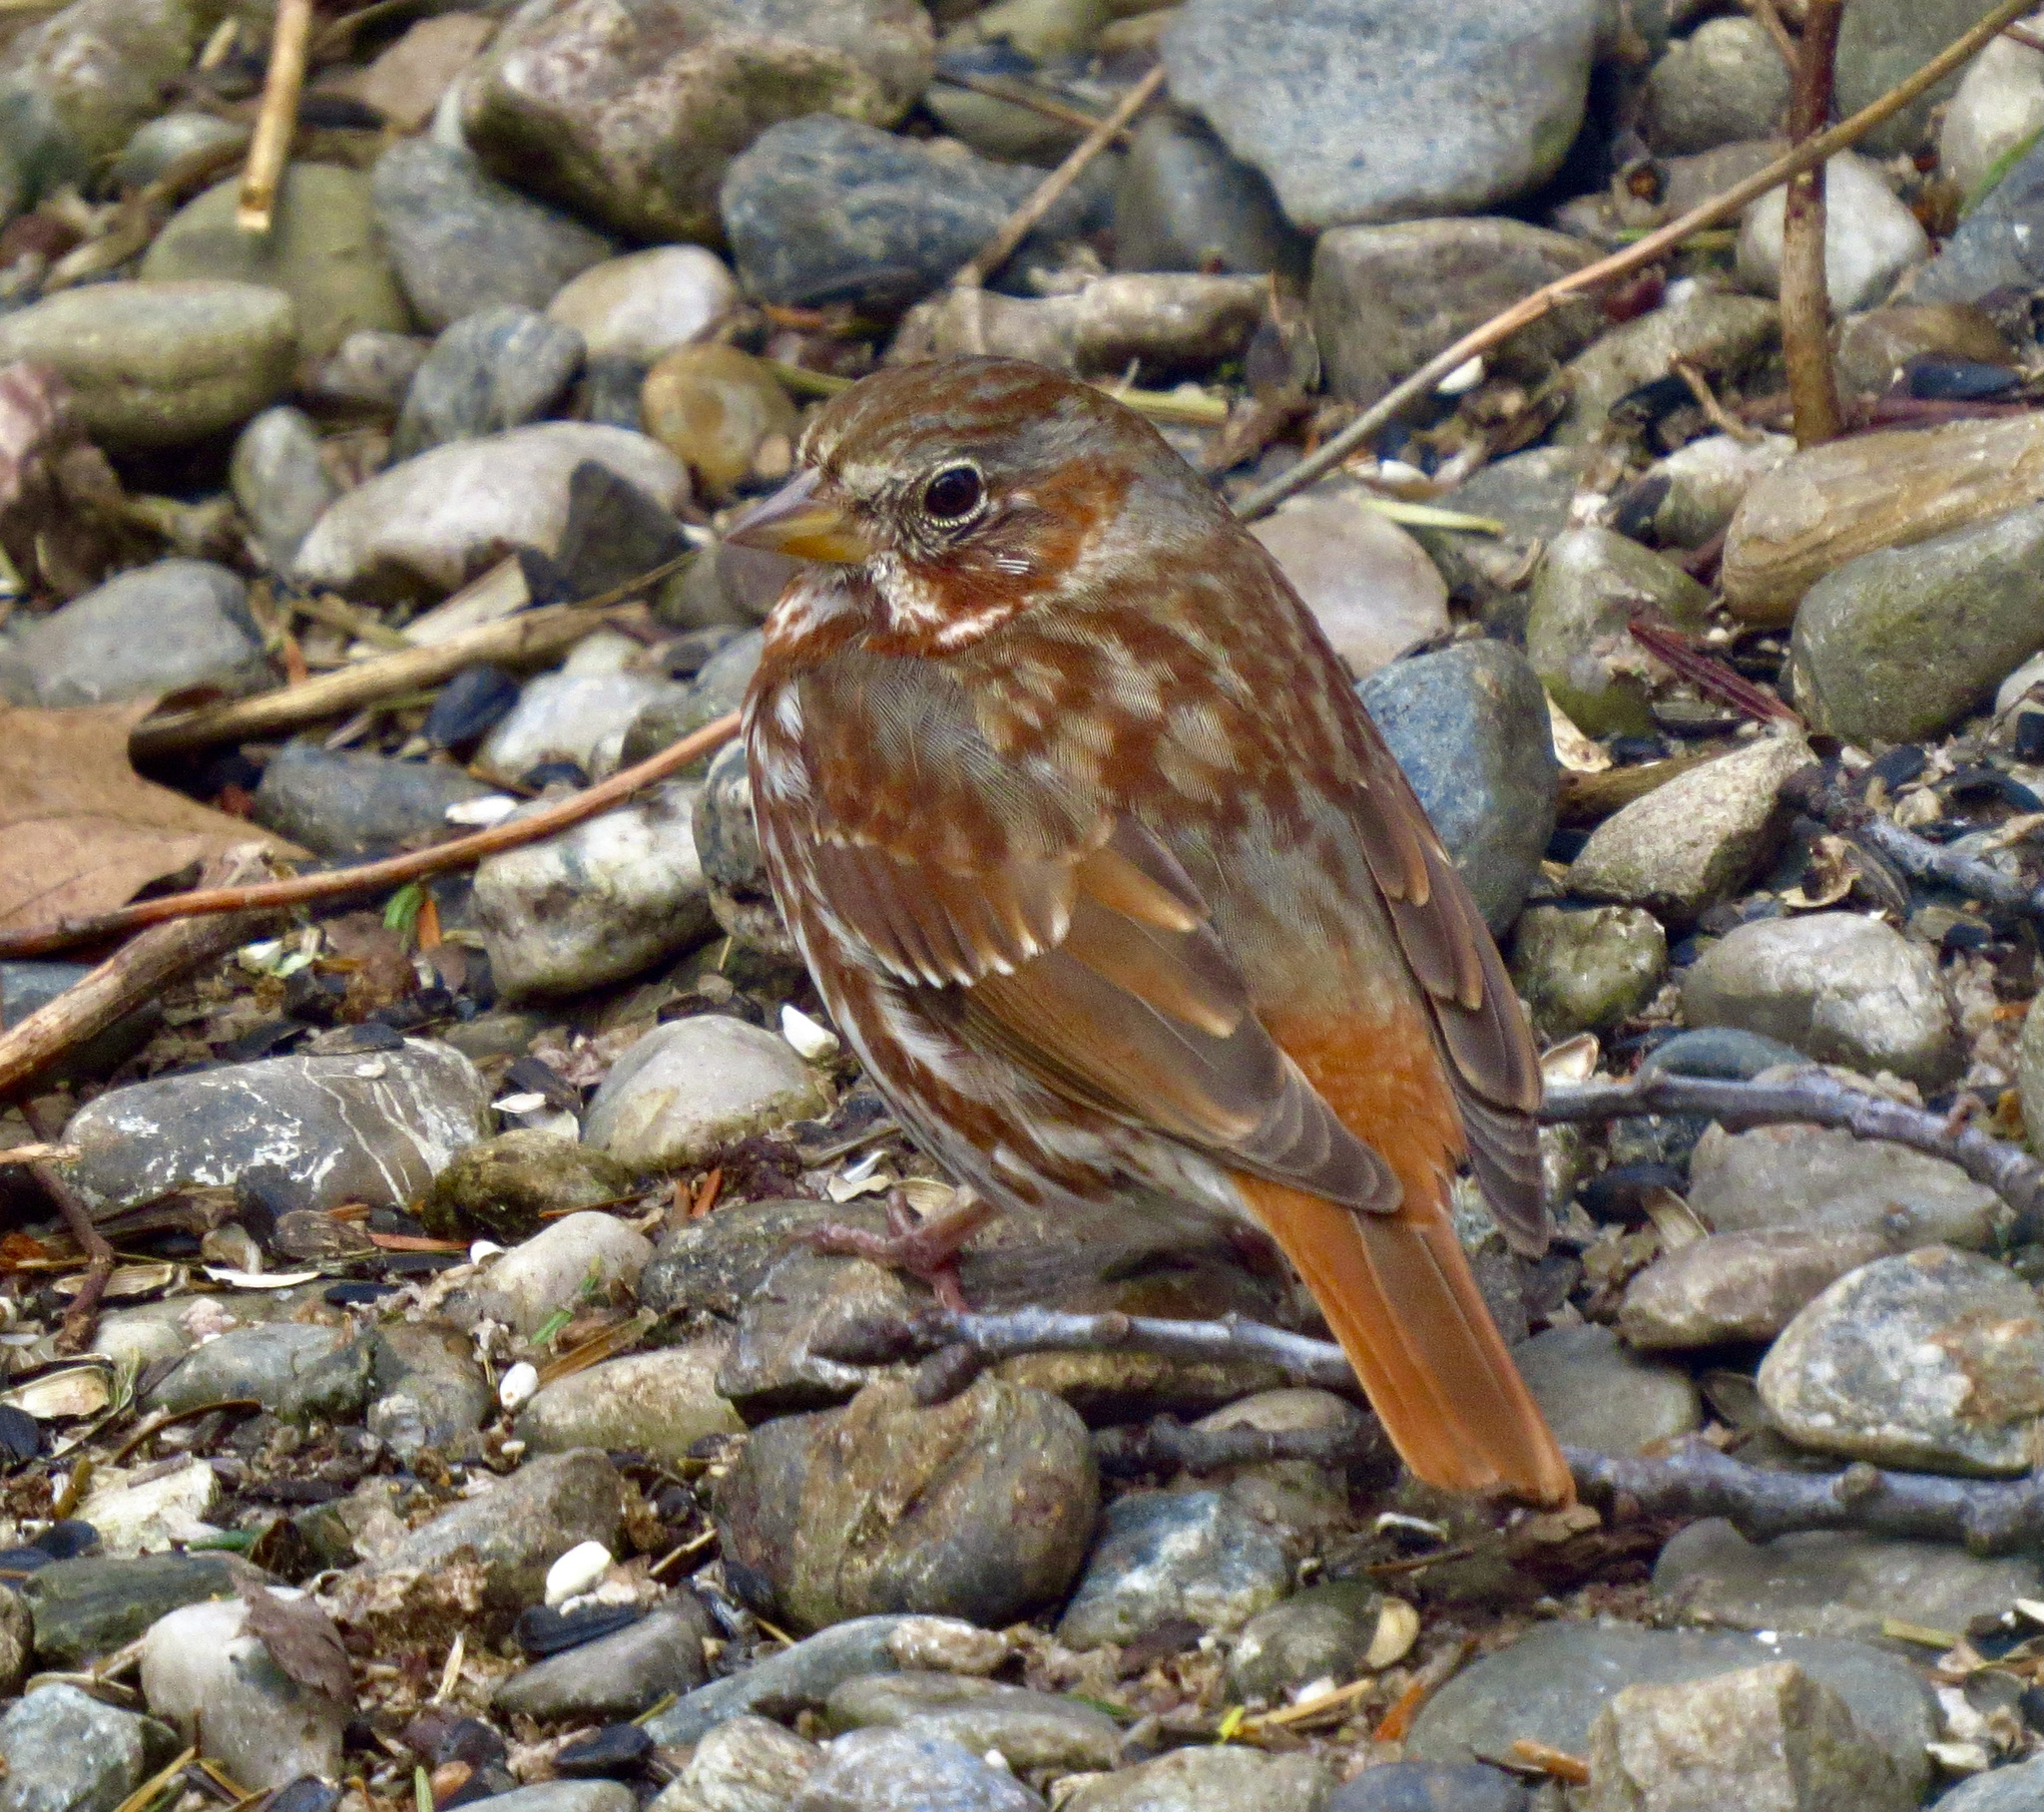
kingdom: Animalia
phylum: Chordata
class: Aves
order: Passeriformes
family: Passerellidae
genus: Passerella
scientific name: Passerella iliaca
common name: Fox sparrow
